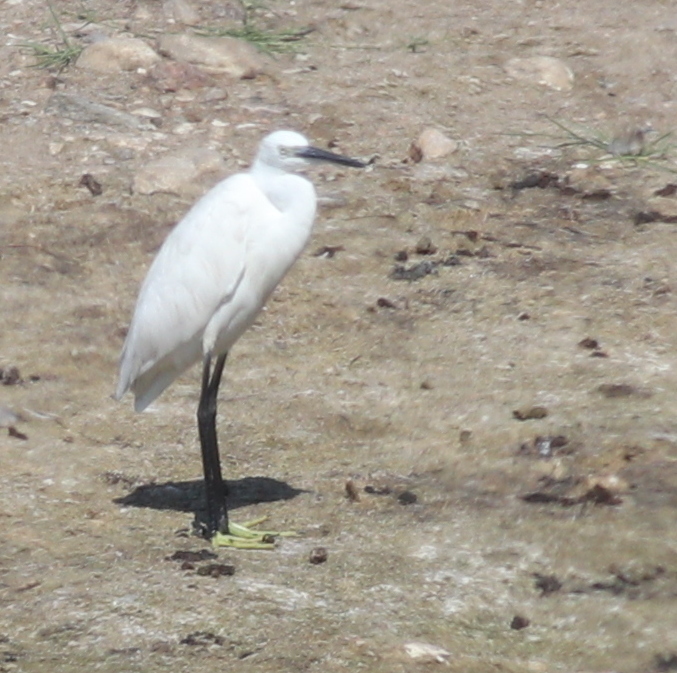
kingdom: Animalia
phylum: Chordata
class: Aves
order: Pelecaniformes
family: Ardeidae
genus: Egretta
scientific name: Egretta garzetta
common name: Little egret
